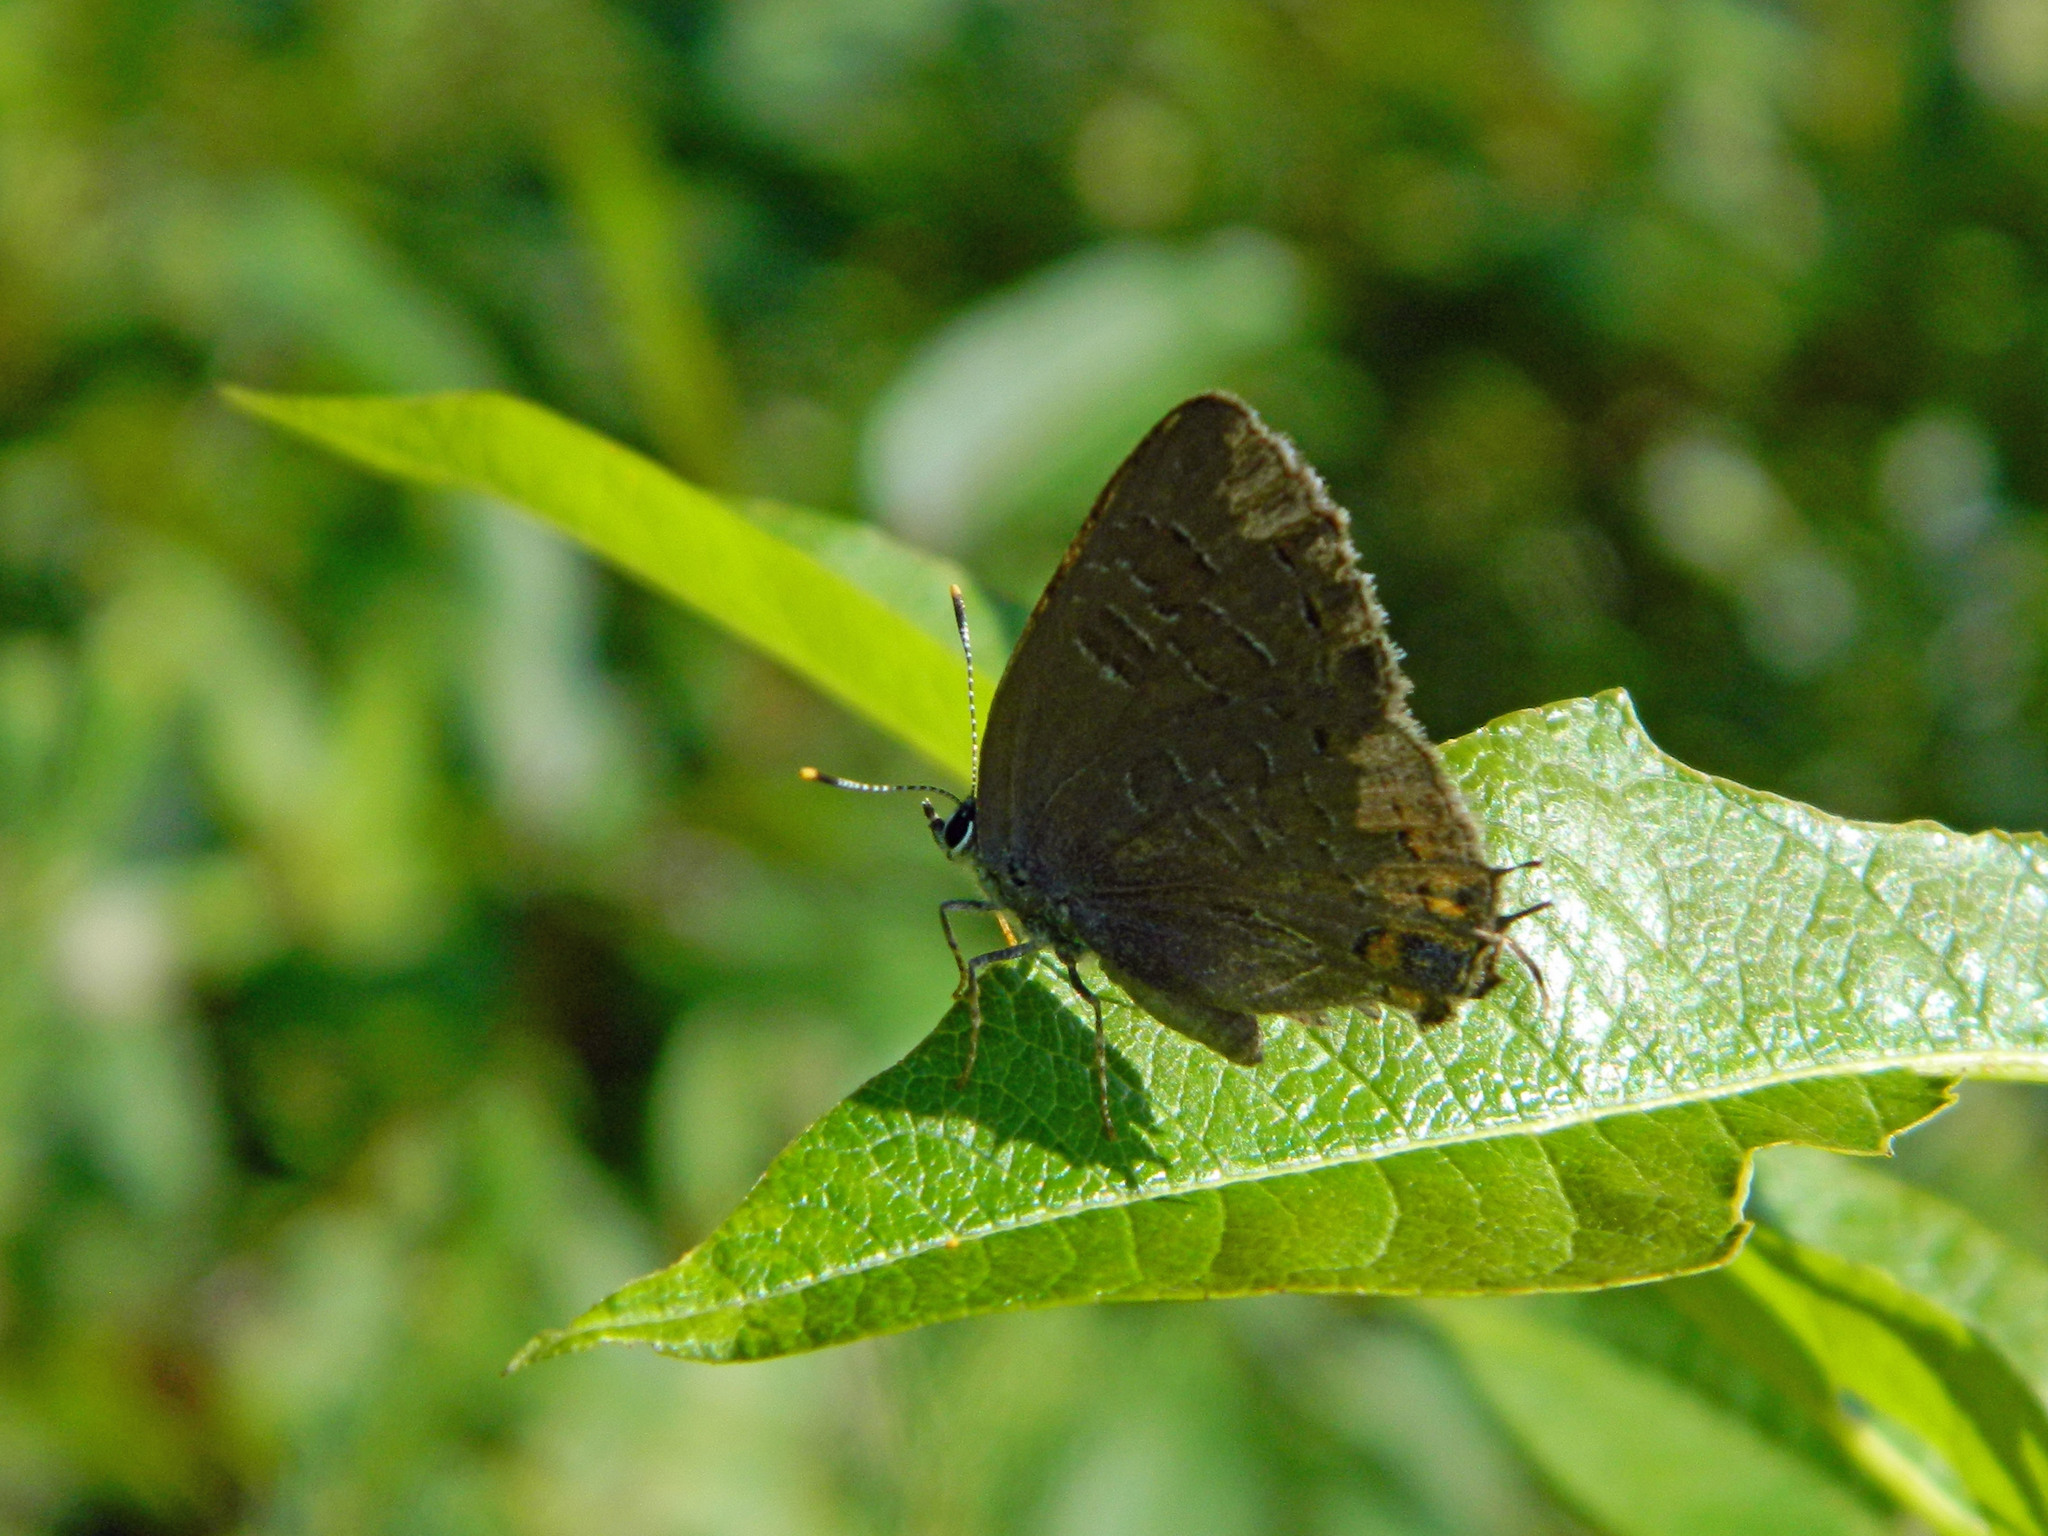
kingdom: Animalia
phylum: Arthropoda
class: Insecta
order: Lepidoptera
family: Lycaenidae
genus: Satyrium
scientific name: Satyrium liparops
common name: Striped hairstreak
